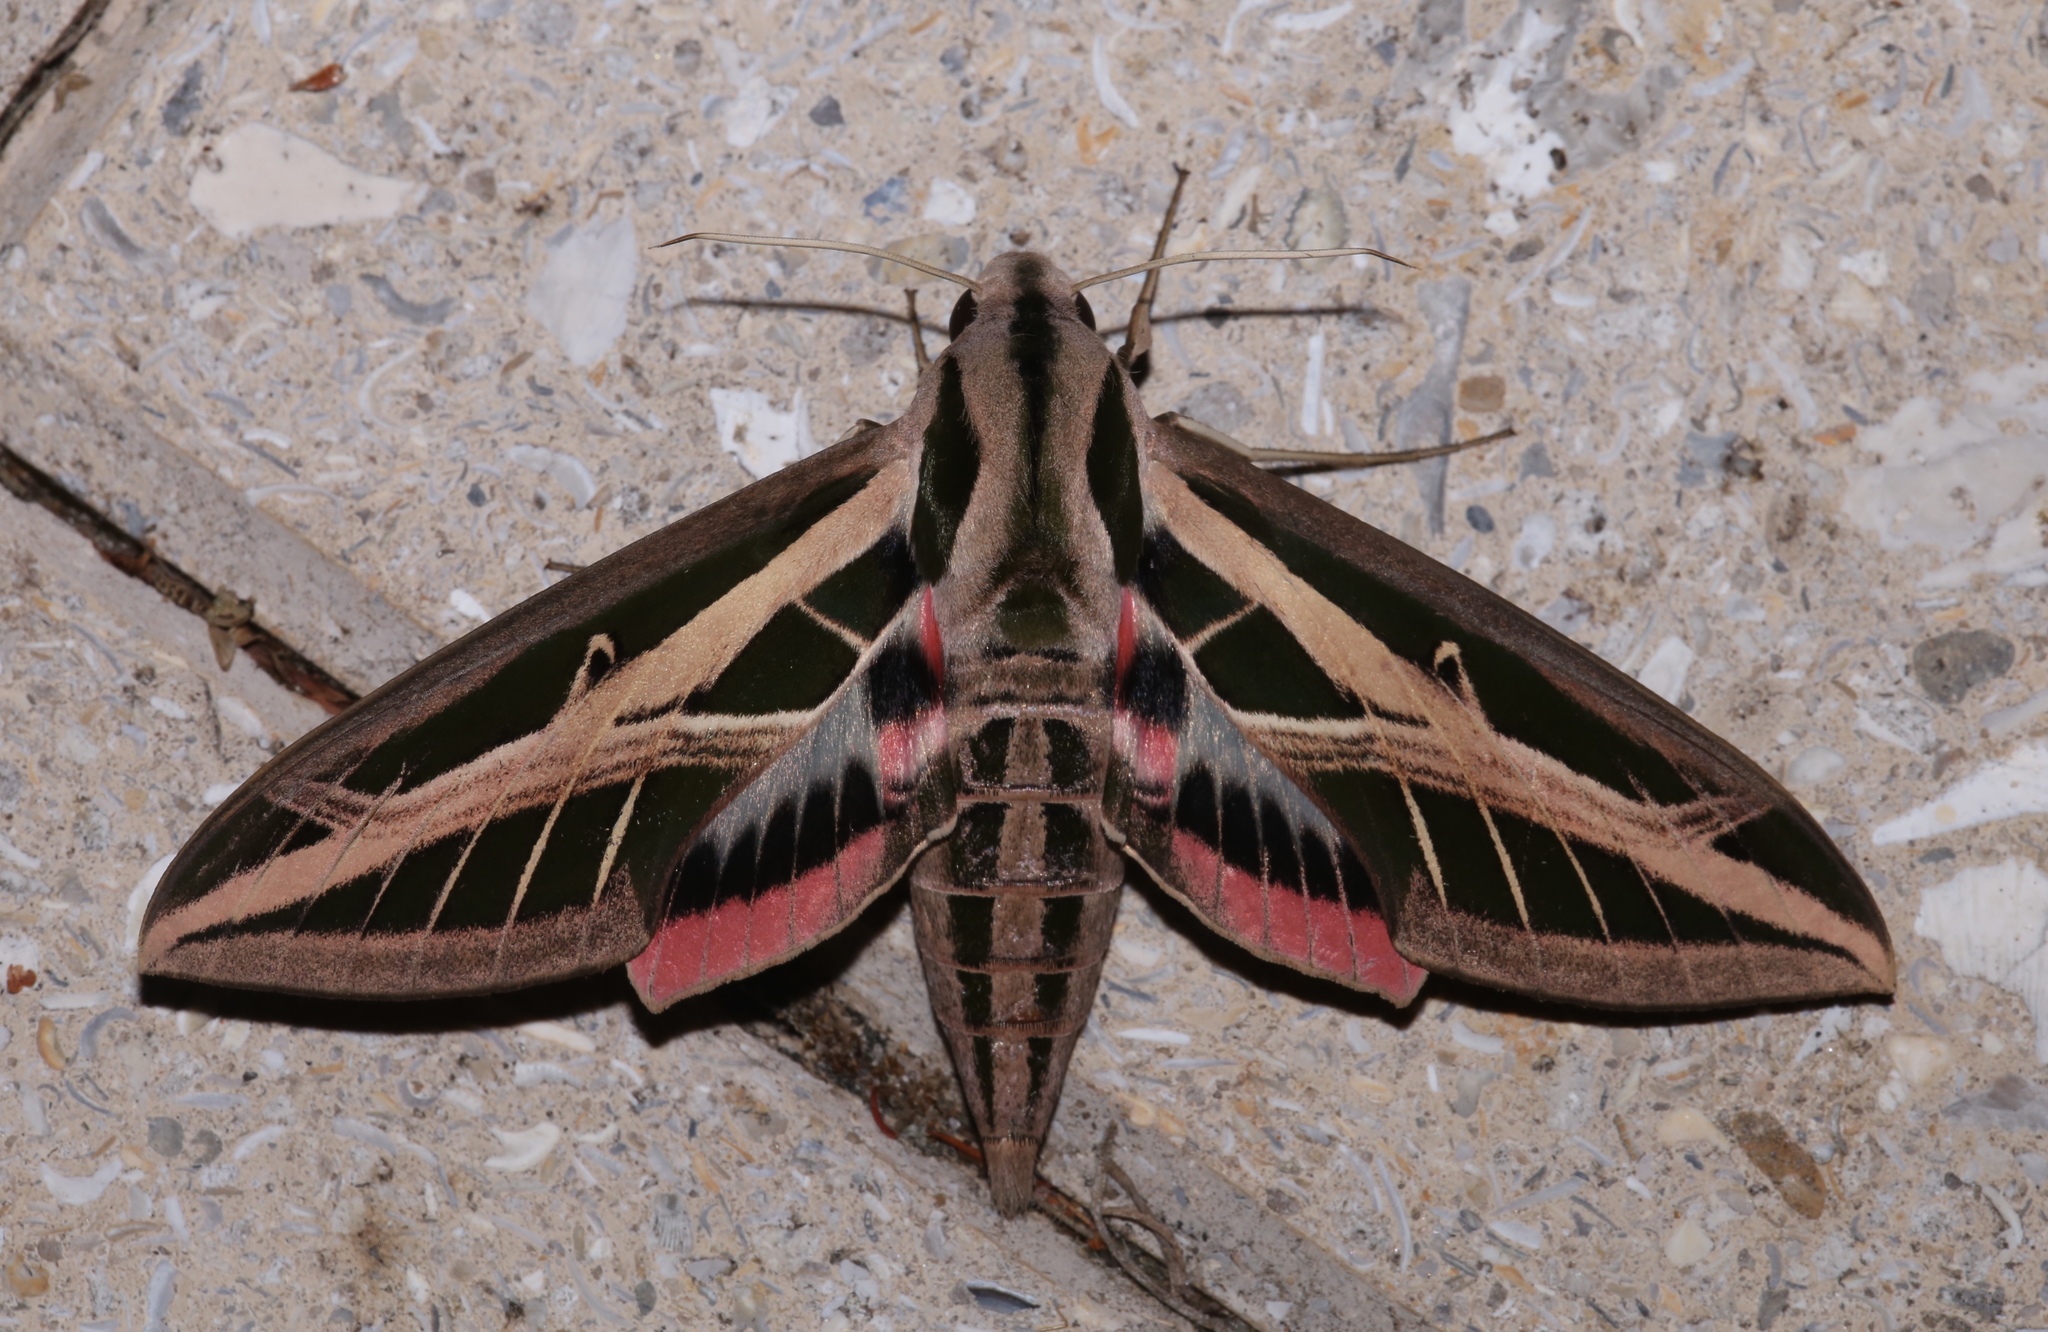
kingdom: Animalia
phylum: Arthropoda
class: Insecta
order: Lepidoptera
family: Sphingidae
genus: Eumorpha
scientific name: Eumorpha fasciatus
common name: Banded sphinx
